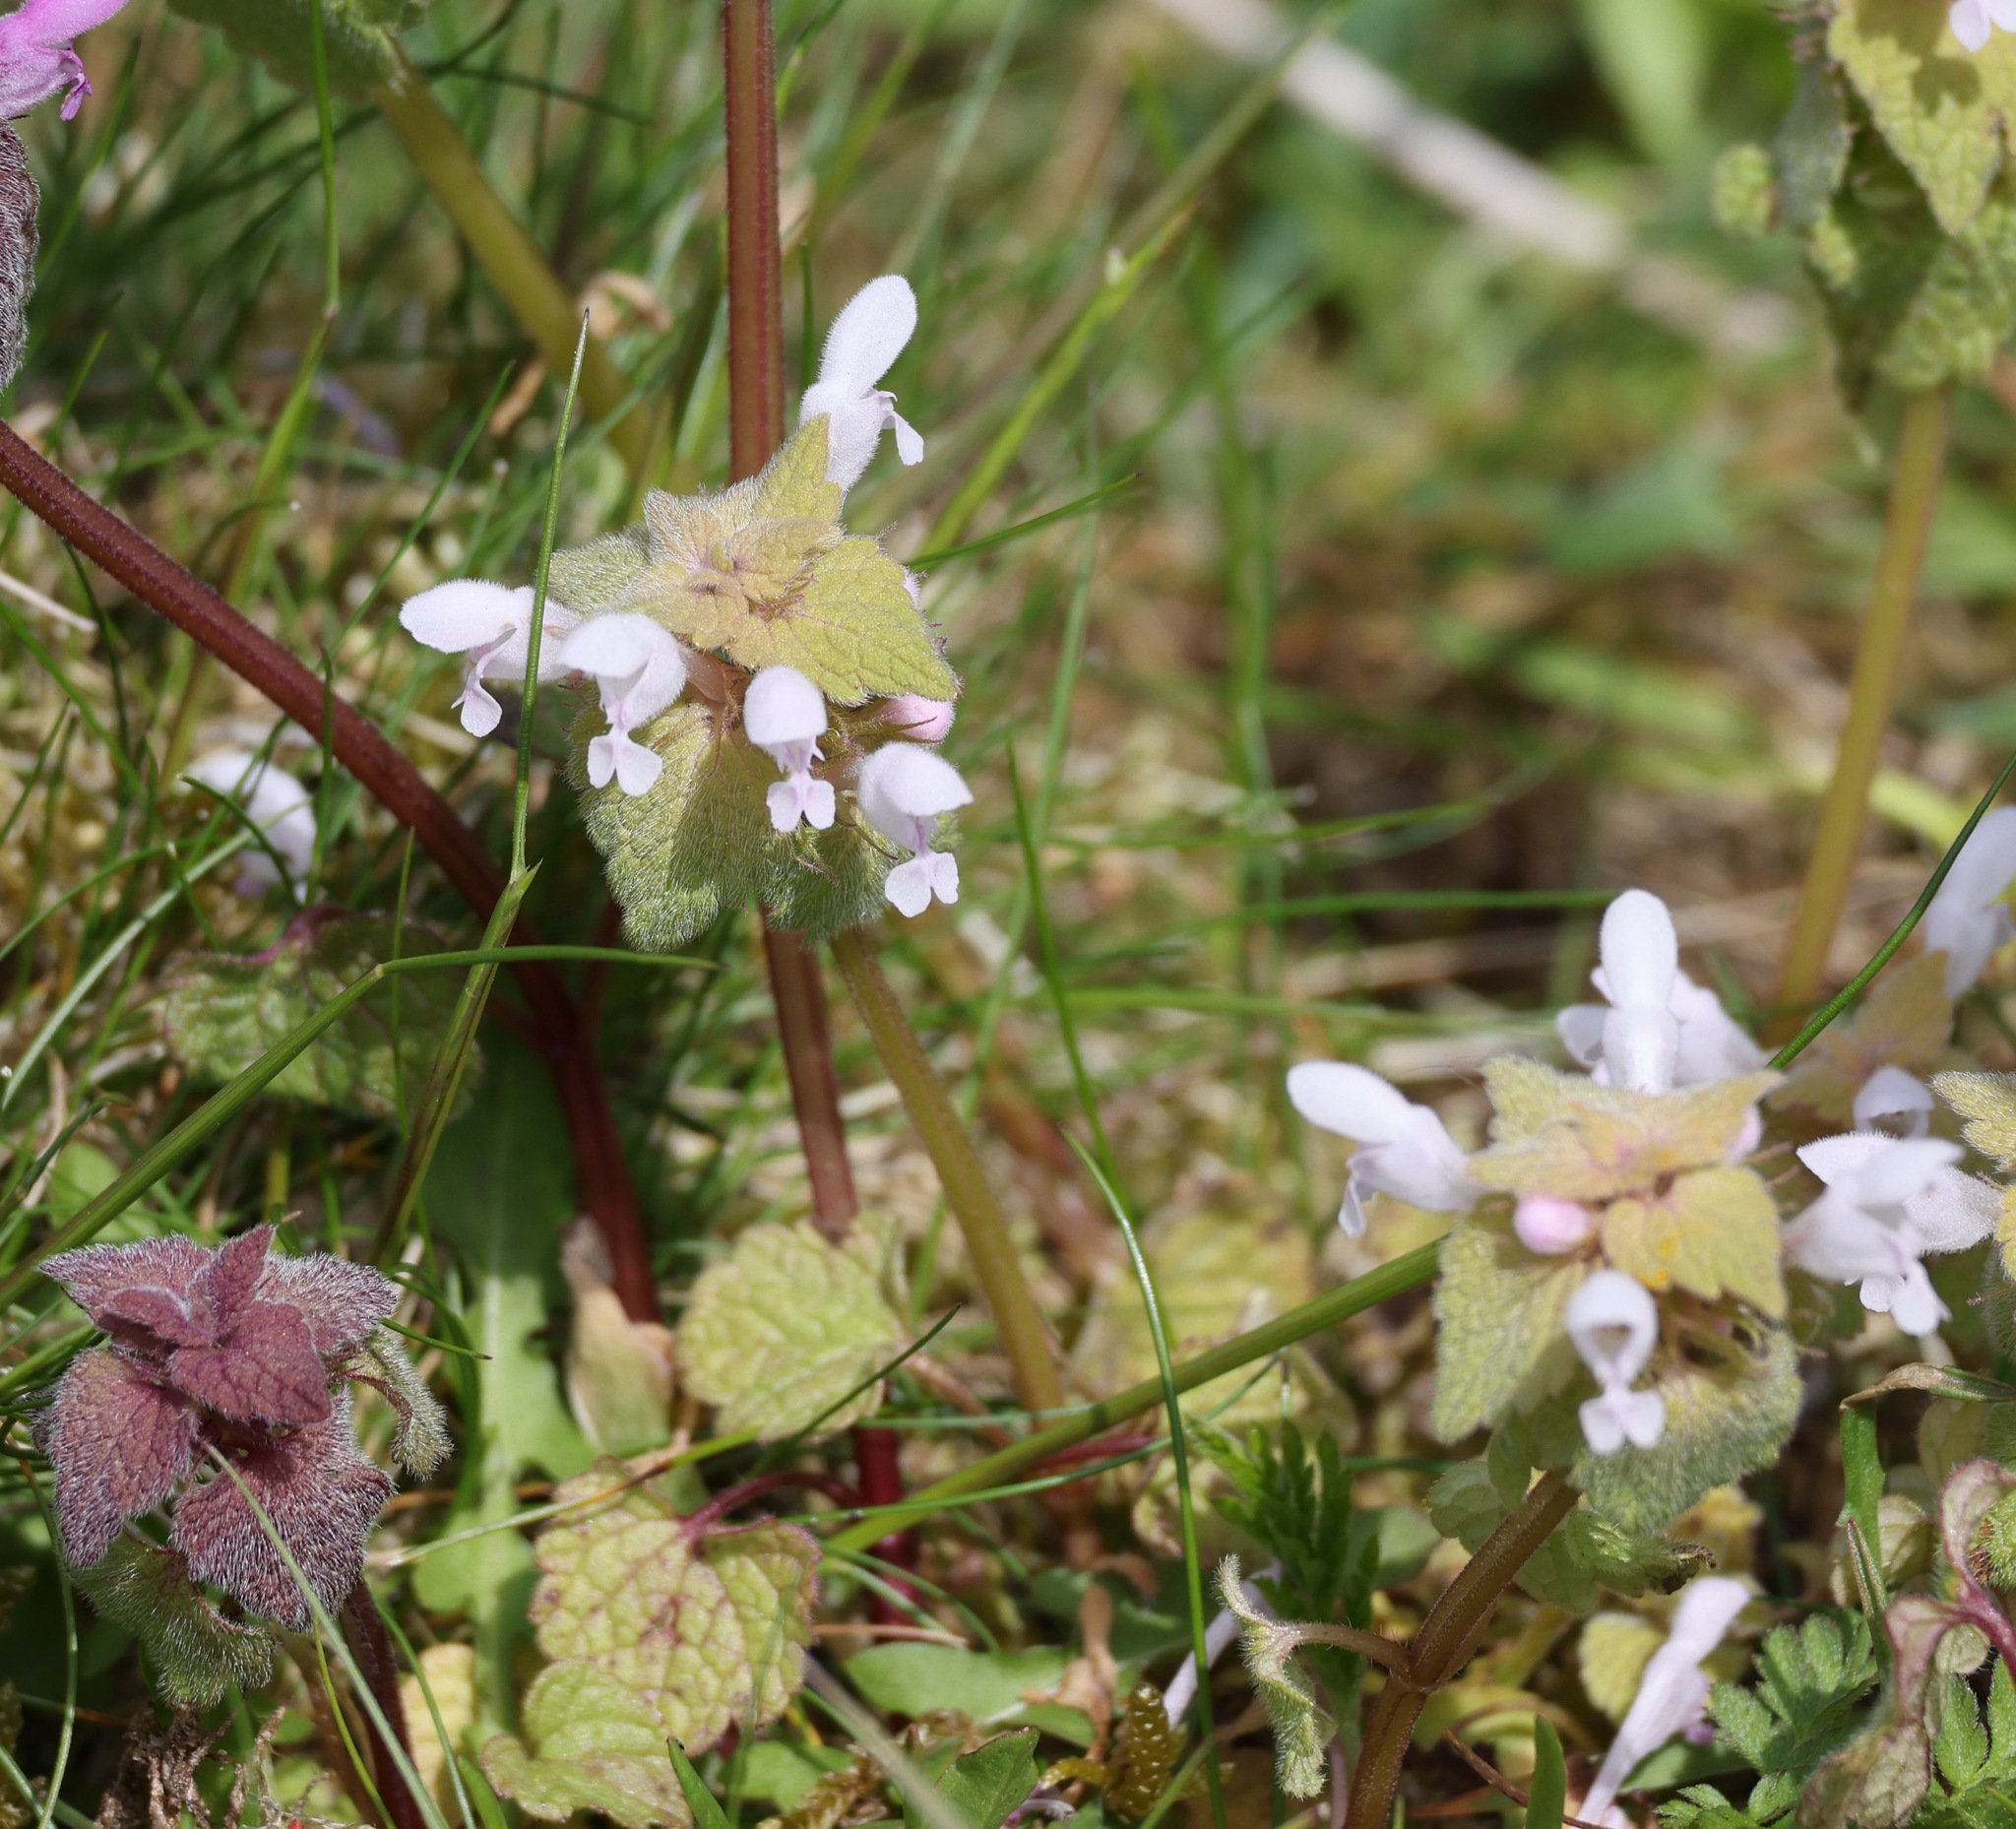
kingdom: Plantae
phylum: Tracheophyta
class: Magnoliopsida
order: Lamiales
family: Lamiaceae
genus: Lamium
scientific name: Lamium purpureum
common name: Red dead-nettle
